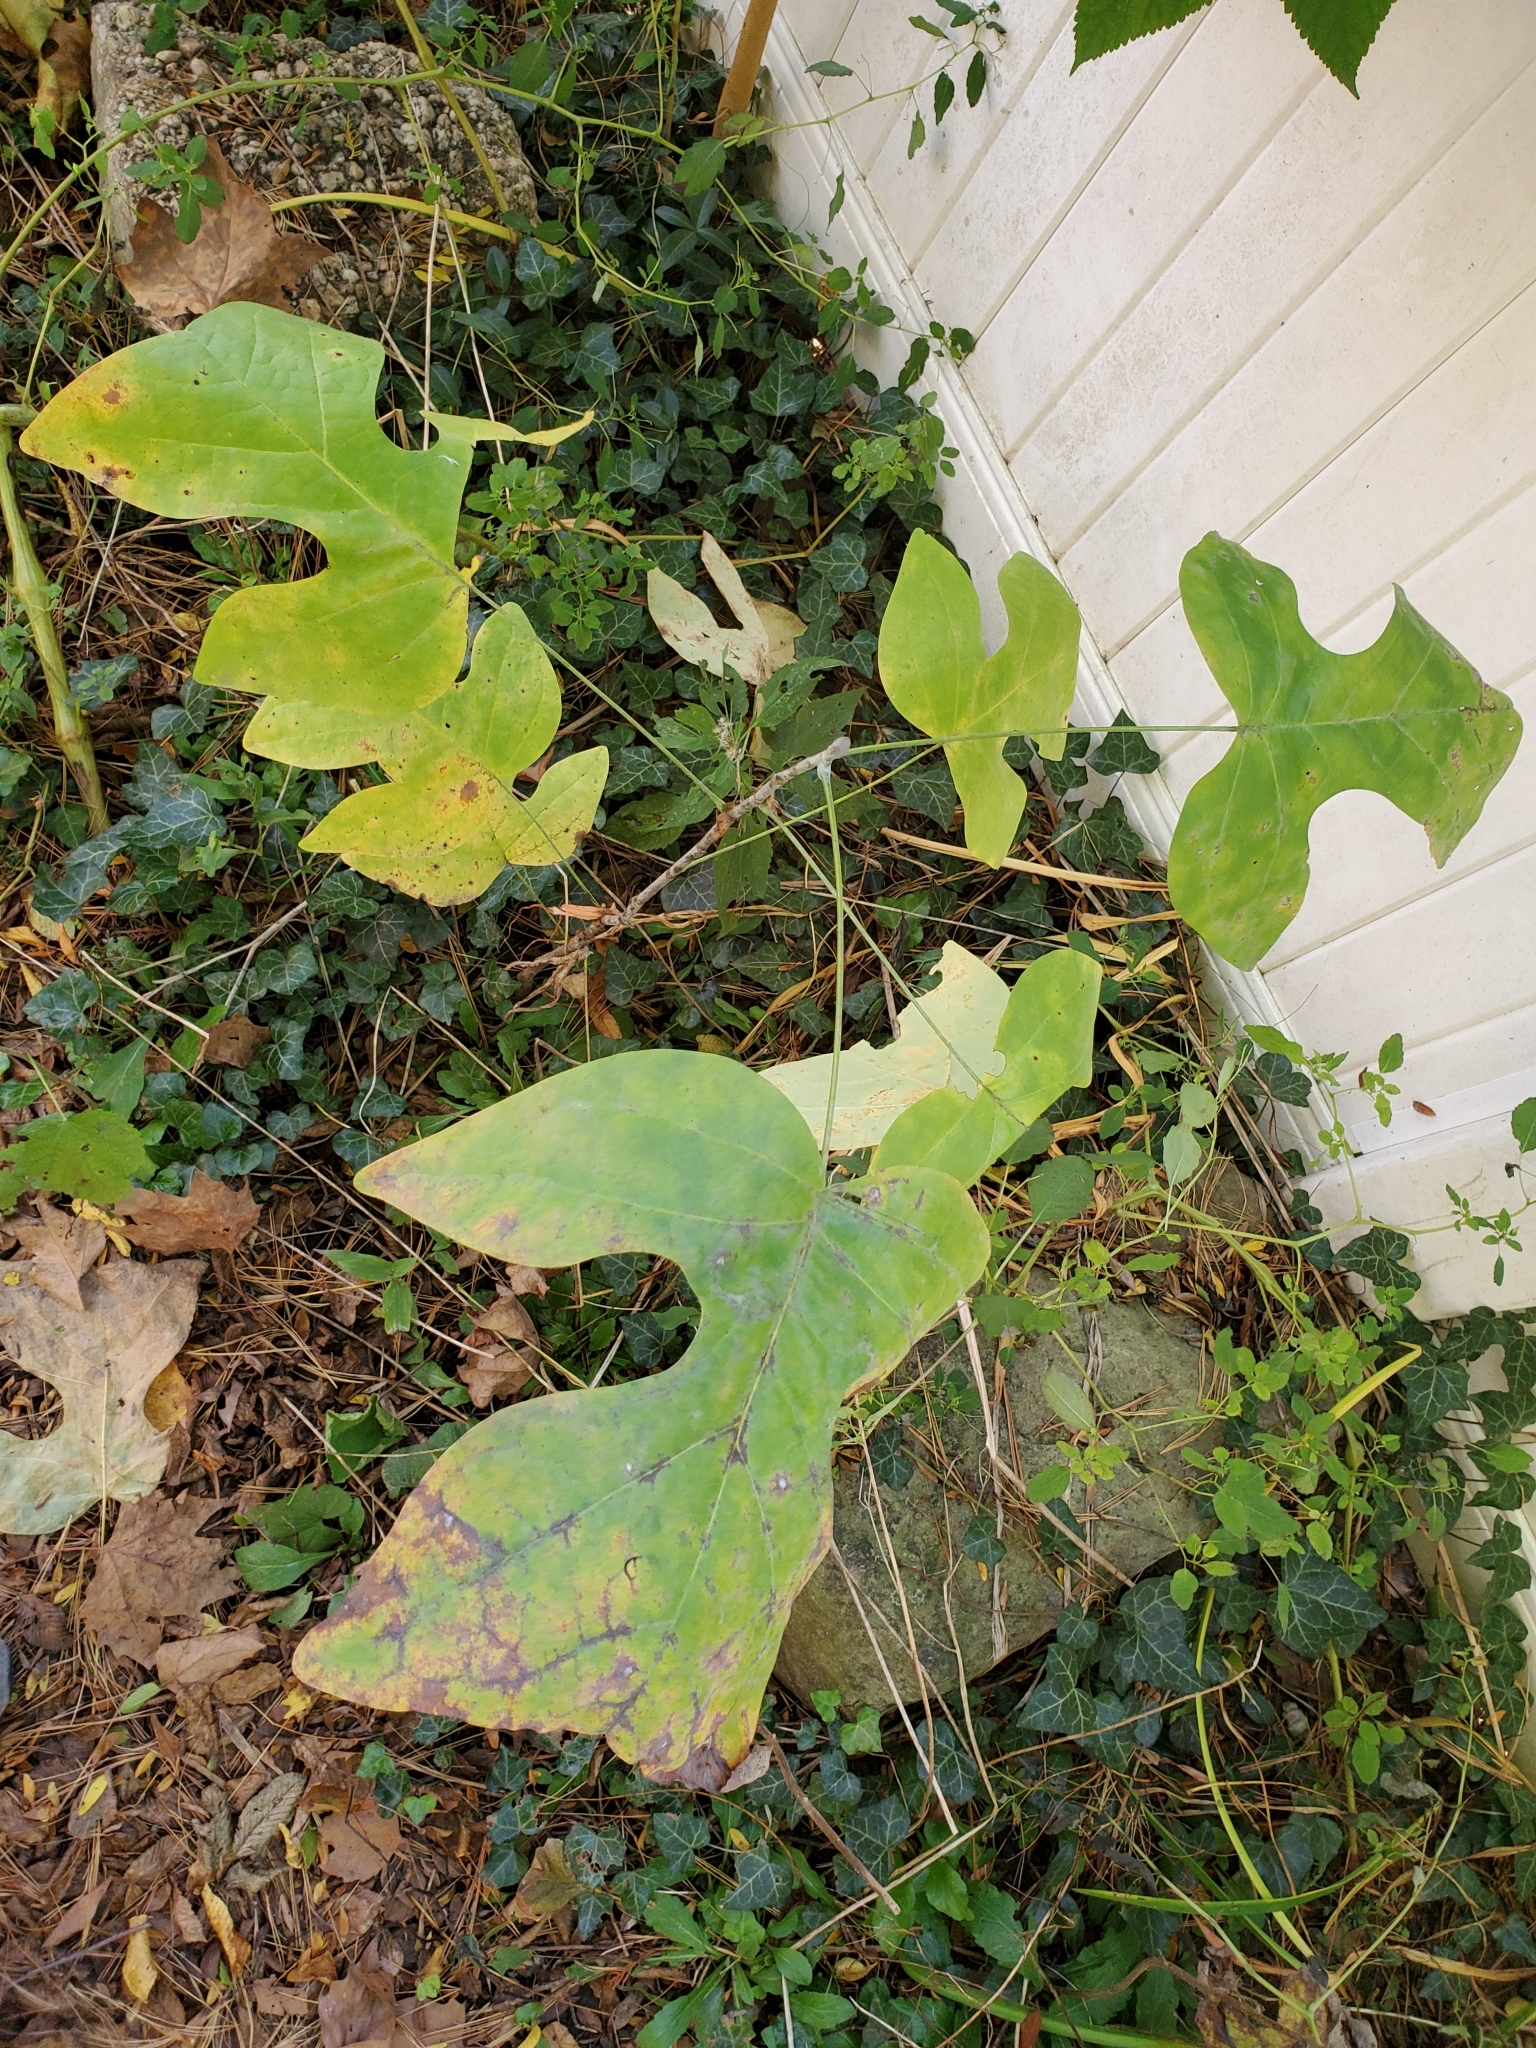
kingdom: Plantae
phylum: Tracheophyta
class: Magnoliopsida
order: Magnoliales
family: Magnoliaceae
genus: Liriodendron
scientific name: Liriodendron tulipifera
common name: Tulip tree
